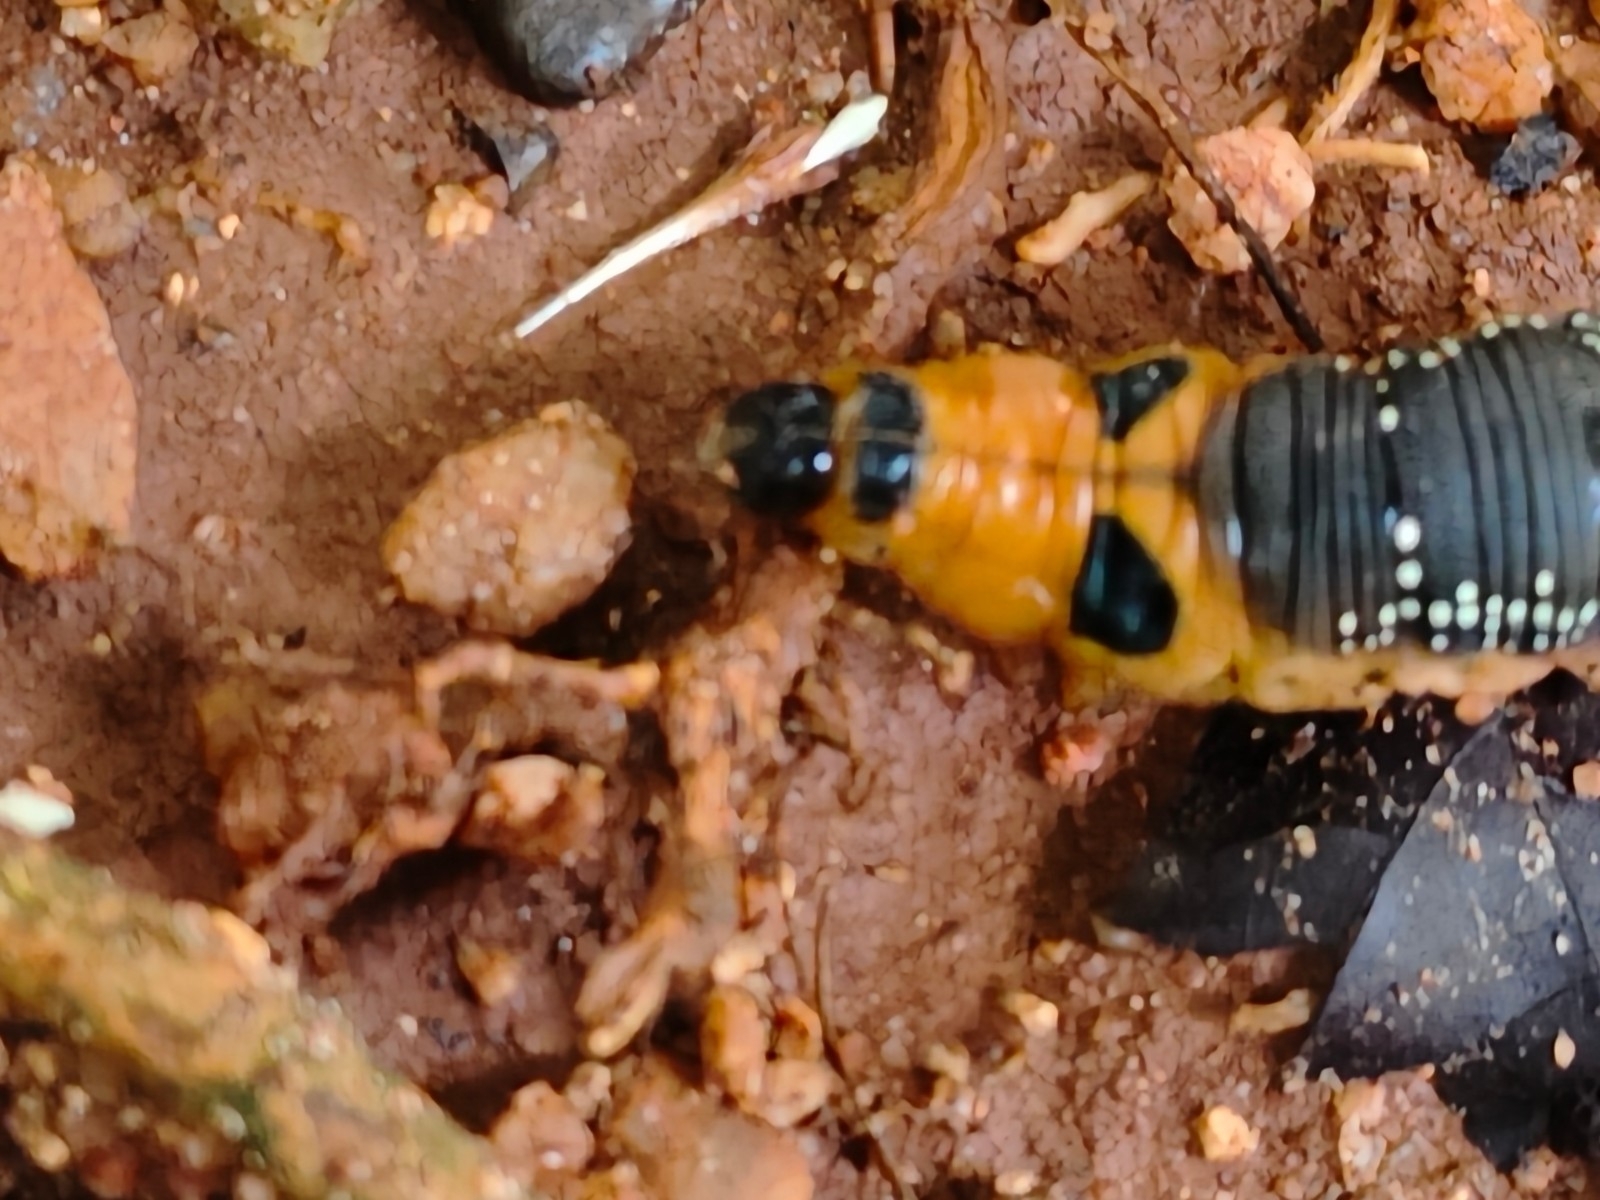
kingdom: Animalia
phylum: Arthropoda
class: Insecta
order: Lepidoptera
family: Sphingidae
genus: Daphnis
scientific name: Daphnis nerii
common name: Oleander hawk-moth
